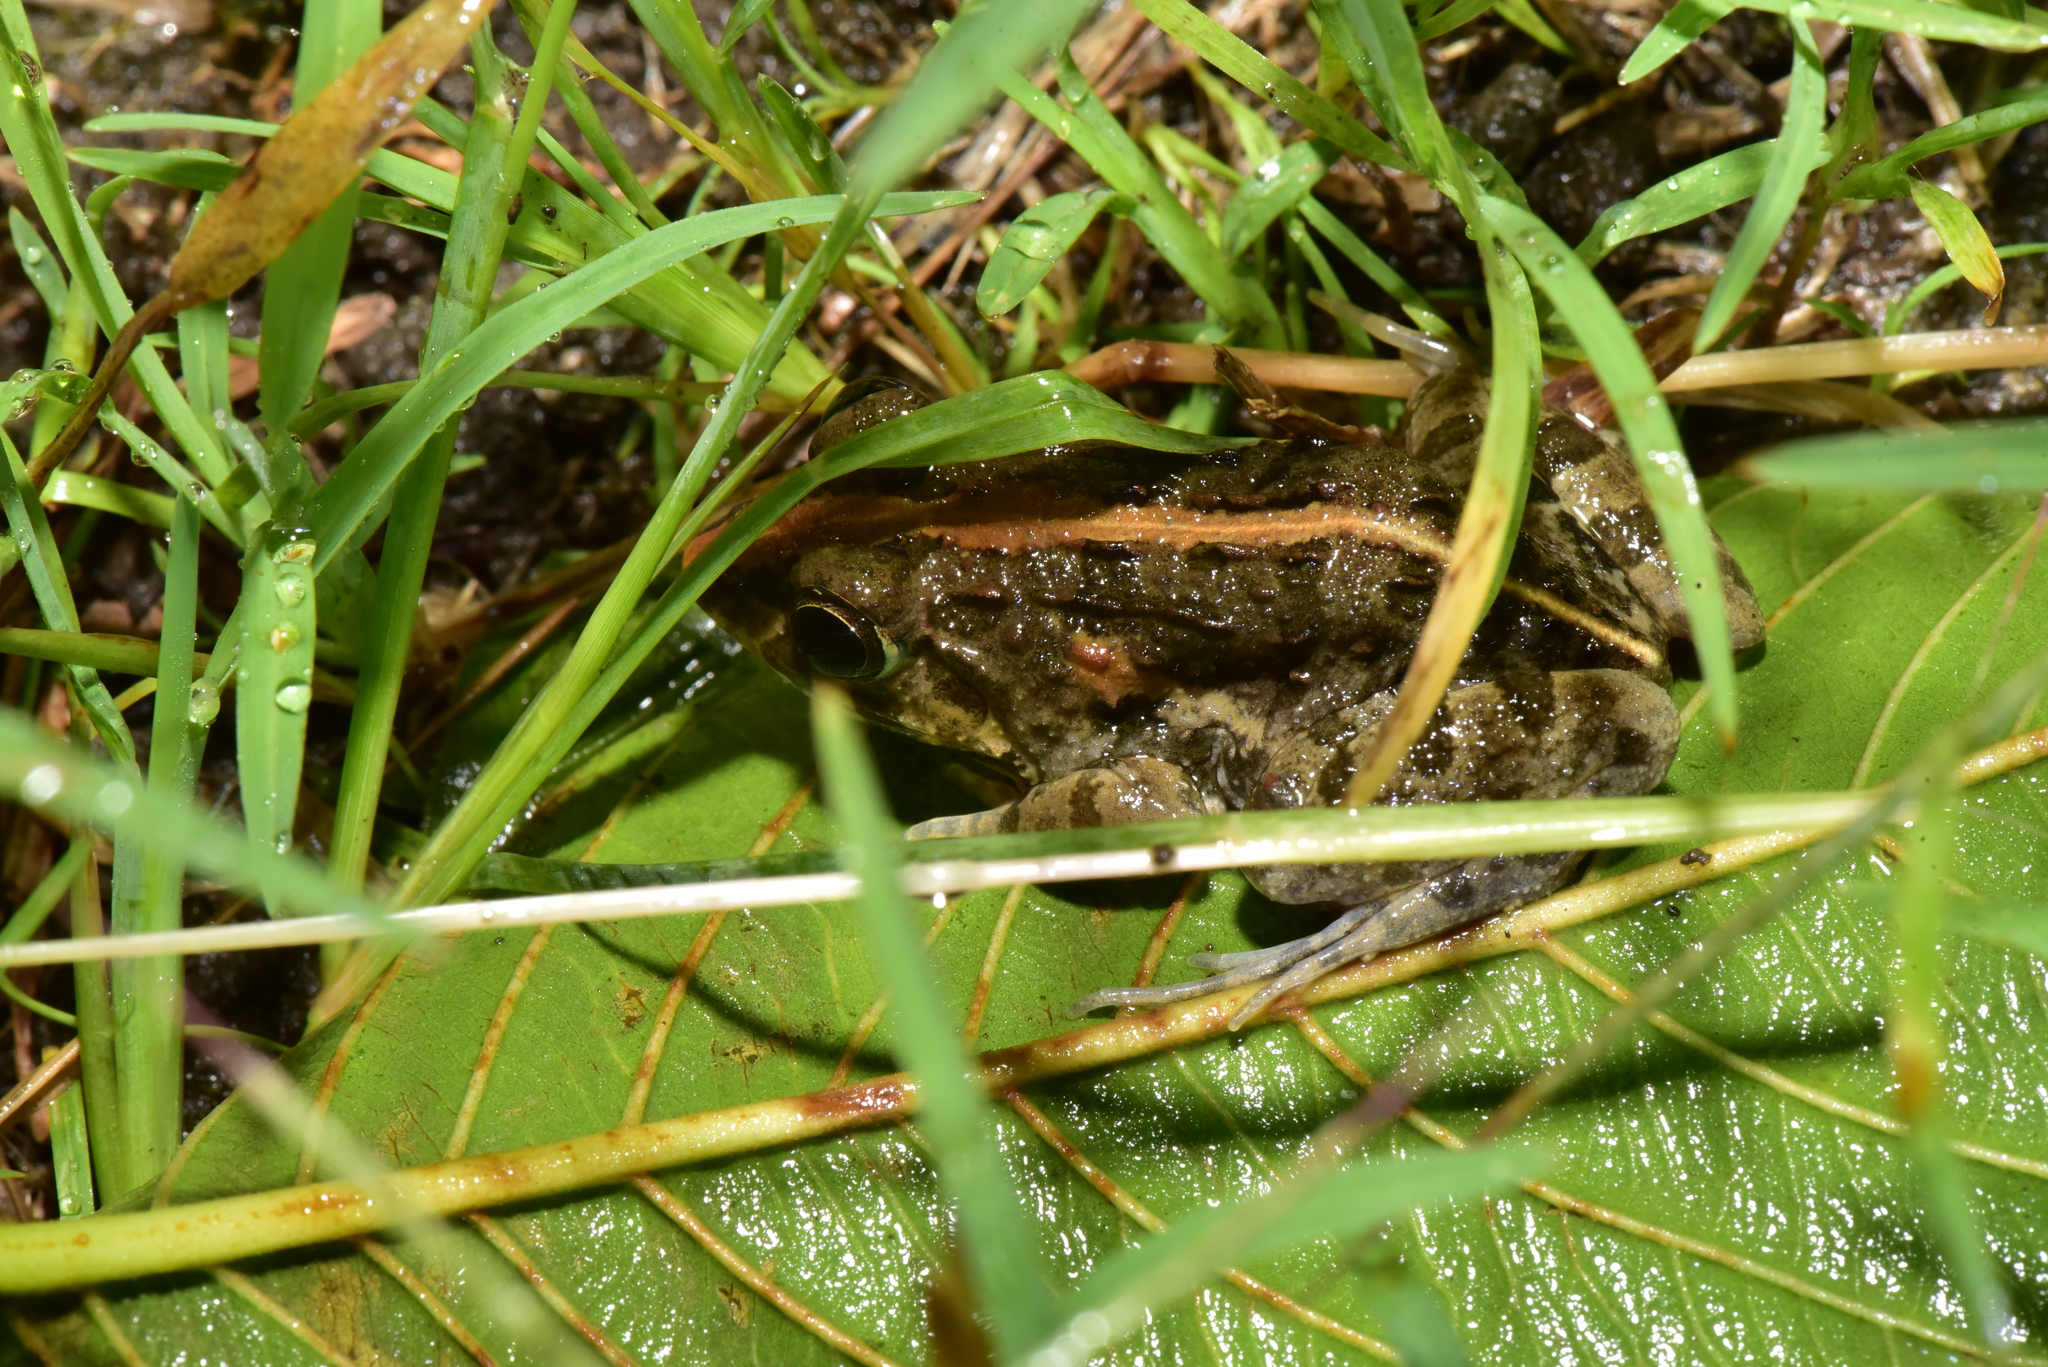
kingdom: Animalia
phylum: Chordata
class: Amphibia
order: Anura
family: Dicroglossidae
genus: Fejervarya
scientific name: Fejervarya limnocharis
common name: Asian grass frog/common pond frog/field frog/grass frog/indian rice frog
